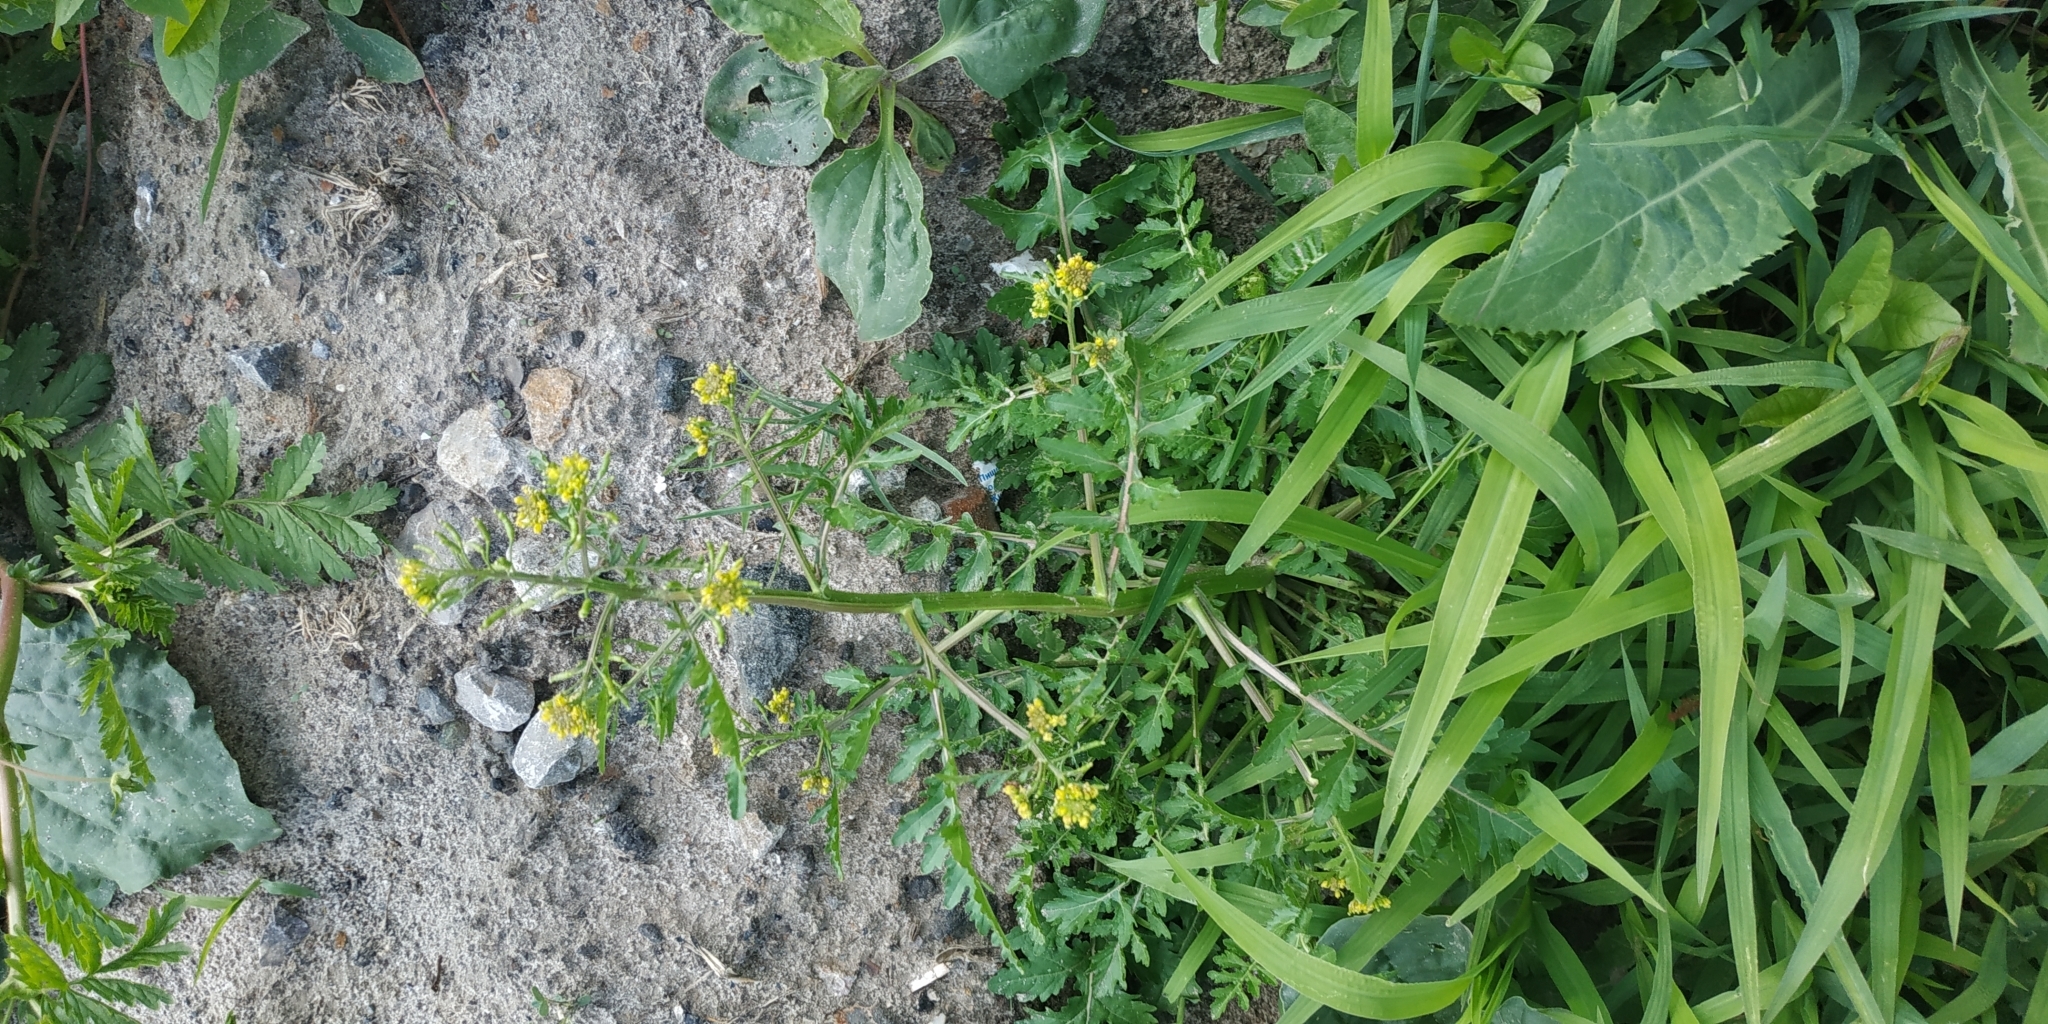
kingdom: Plantae
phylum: Tracheophyta
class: Magnoliopsida
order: Brassicales
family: Brassicaceae
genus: Rorippa
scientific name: Rorippa palustris
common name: Marsh yellow-cress
